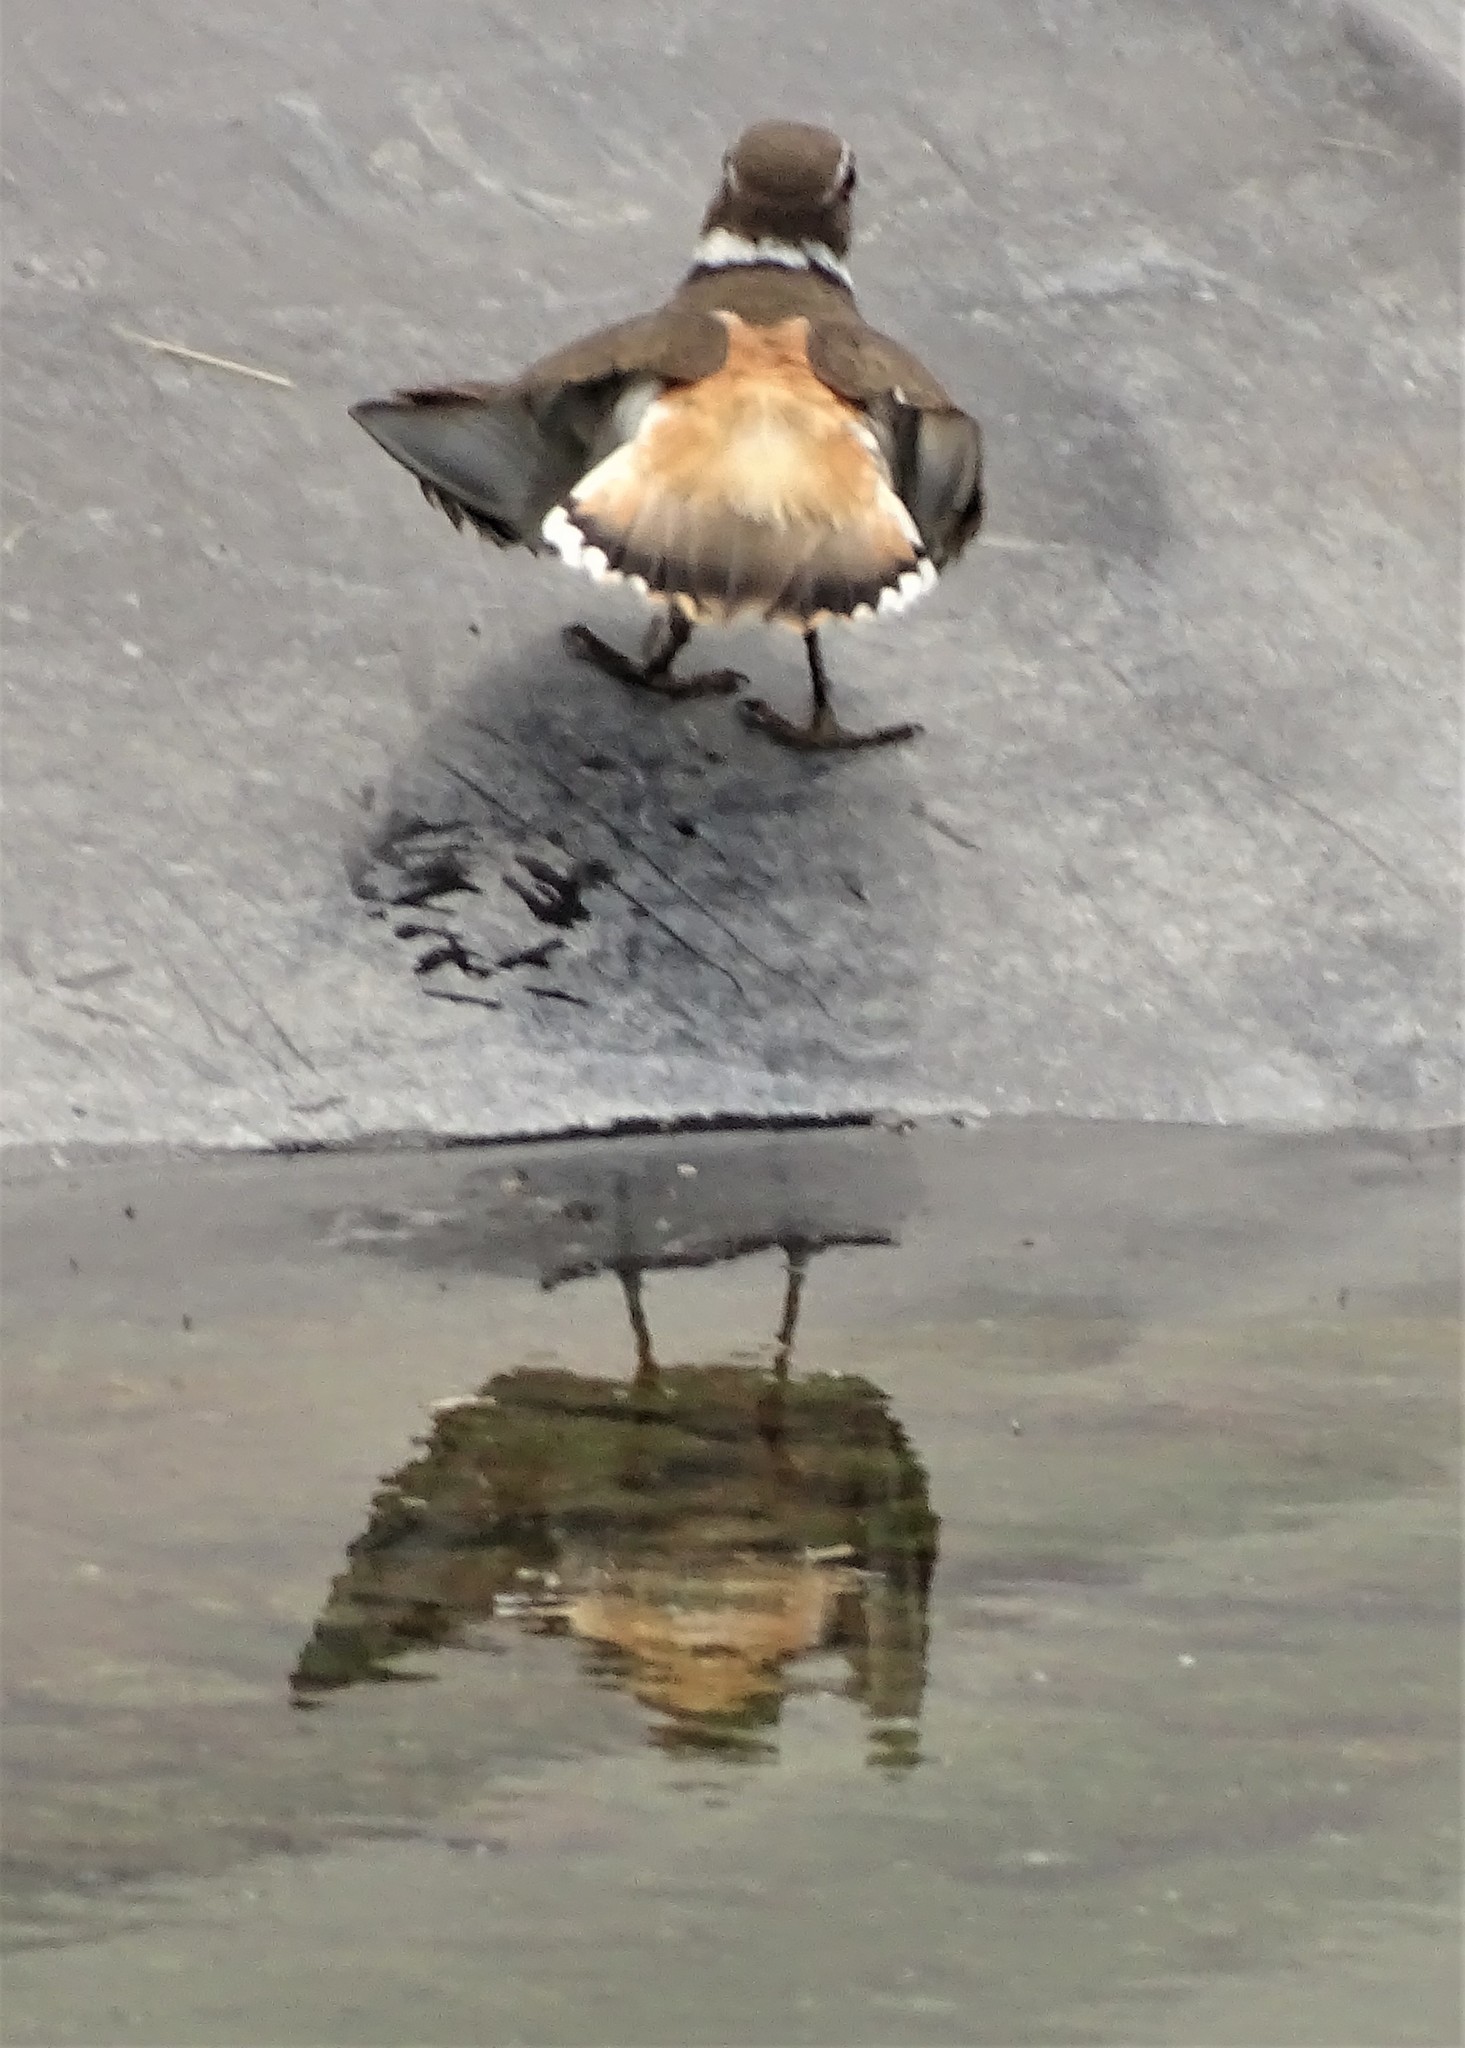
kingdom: Animalia
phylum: Chordata
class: Aves
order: Charadriiformes
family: Charadriidae
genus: Charadrius
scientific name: Charadrius vociferus
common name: Killdeer
